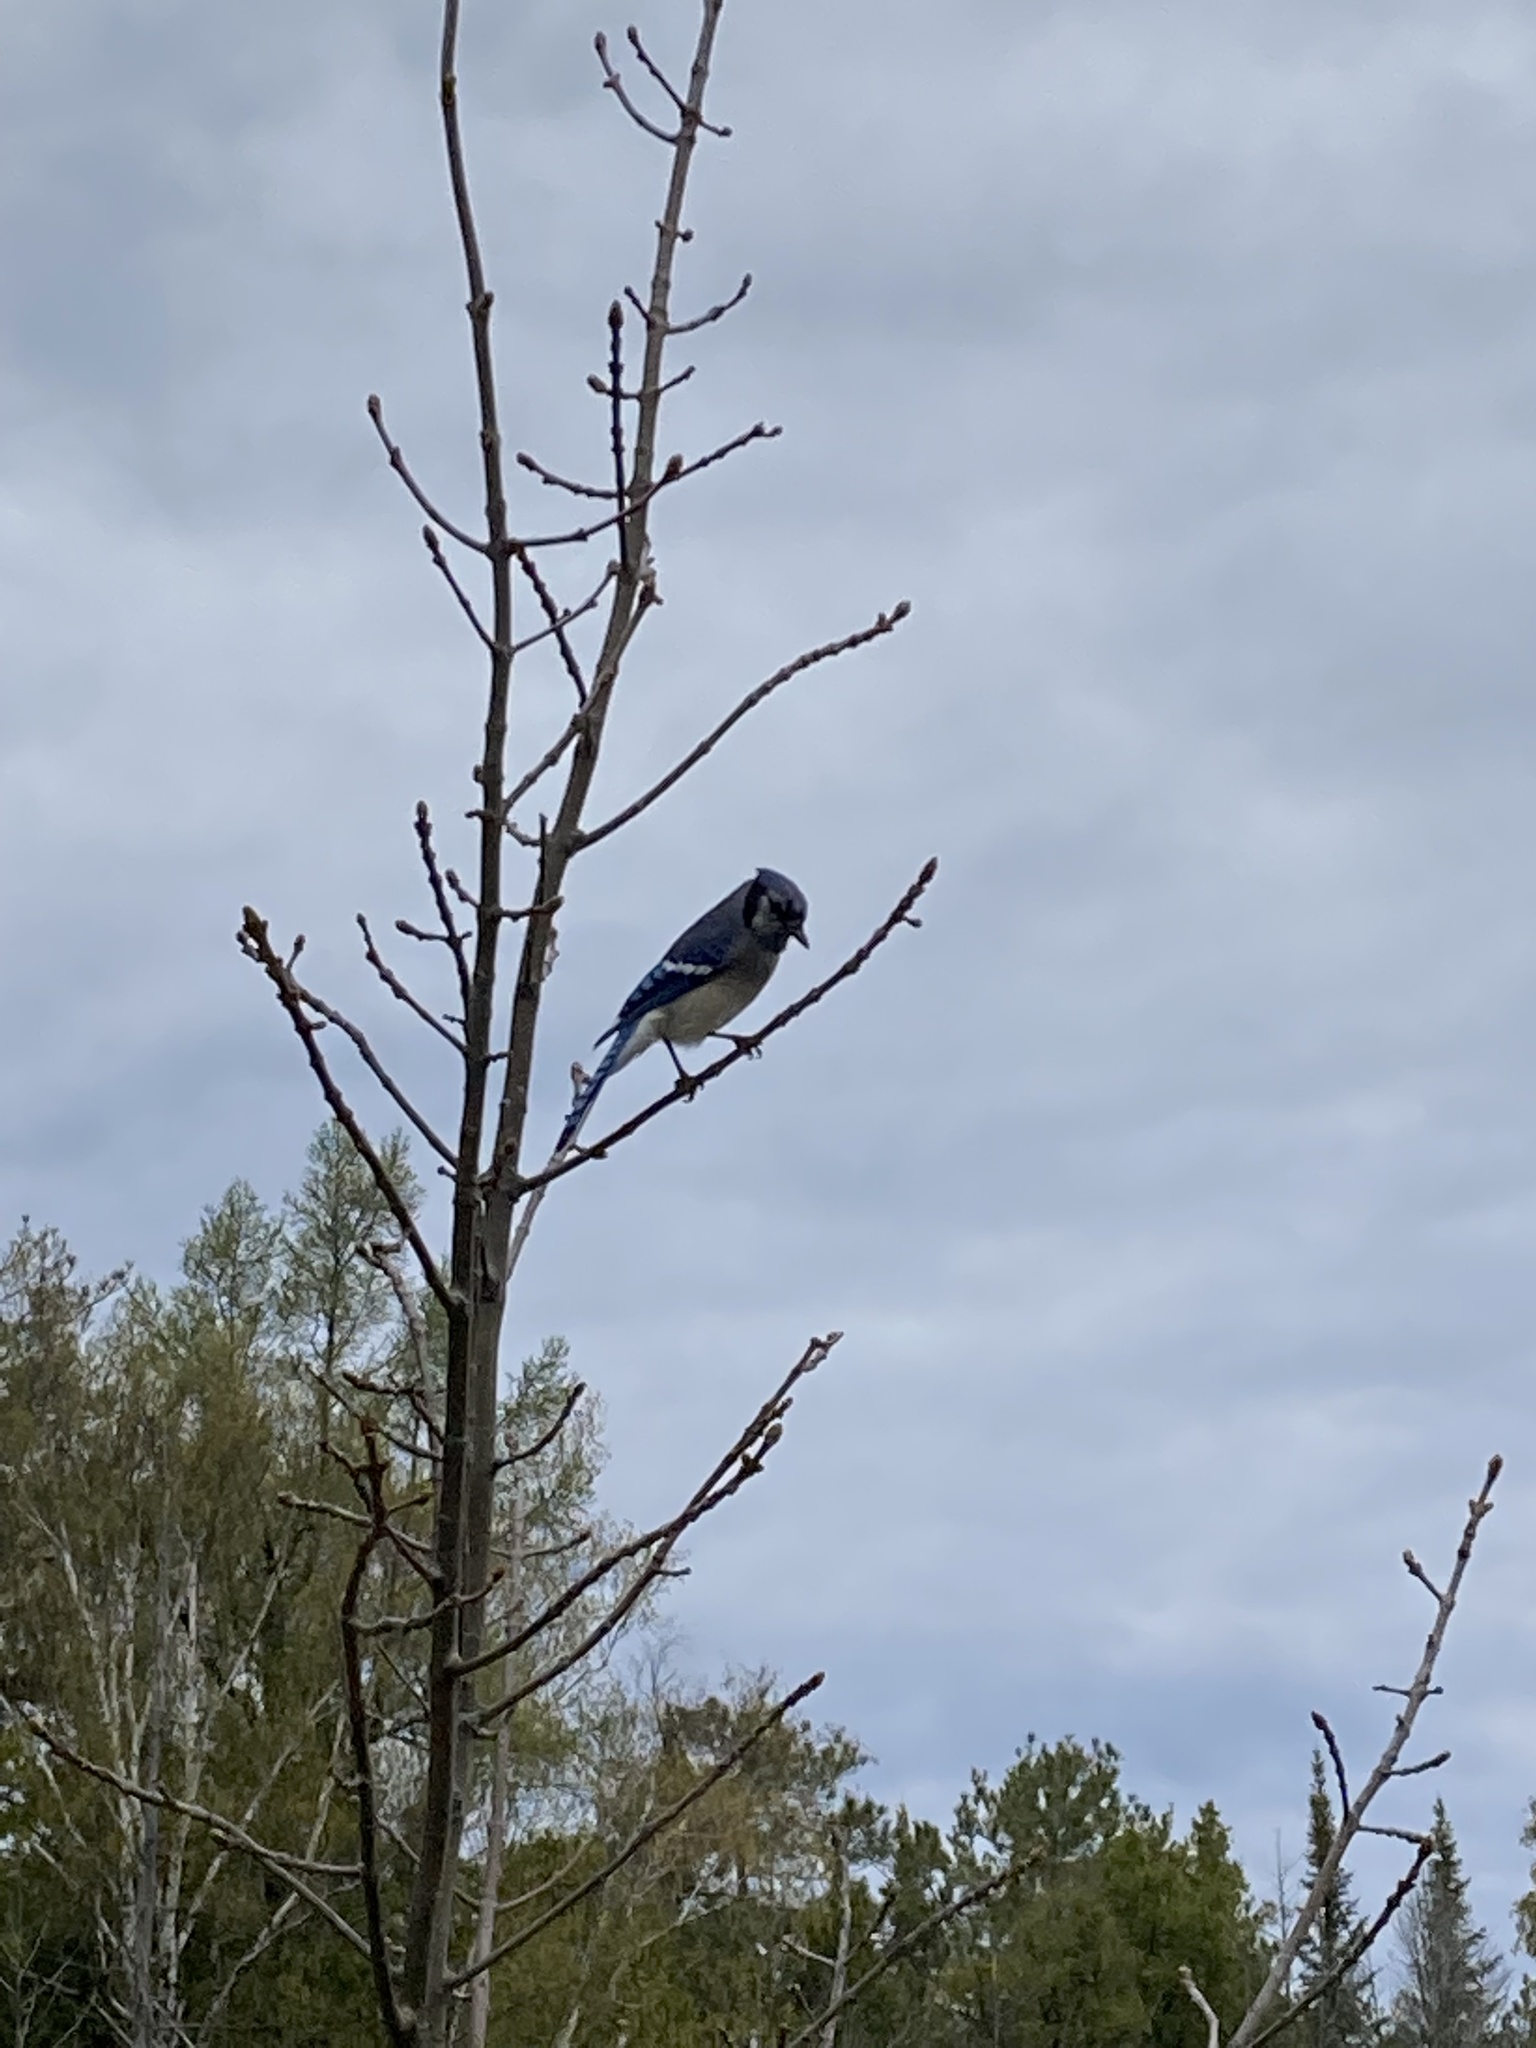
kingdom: Animalia
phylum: Chordata
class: Aves
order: Passeriformes
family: Corvidae
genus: Cyanocitta
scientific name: Cyanocitta cristata
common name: Blue jay
